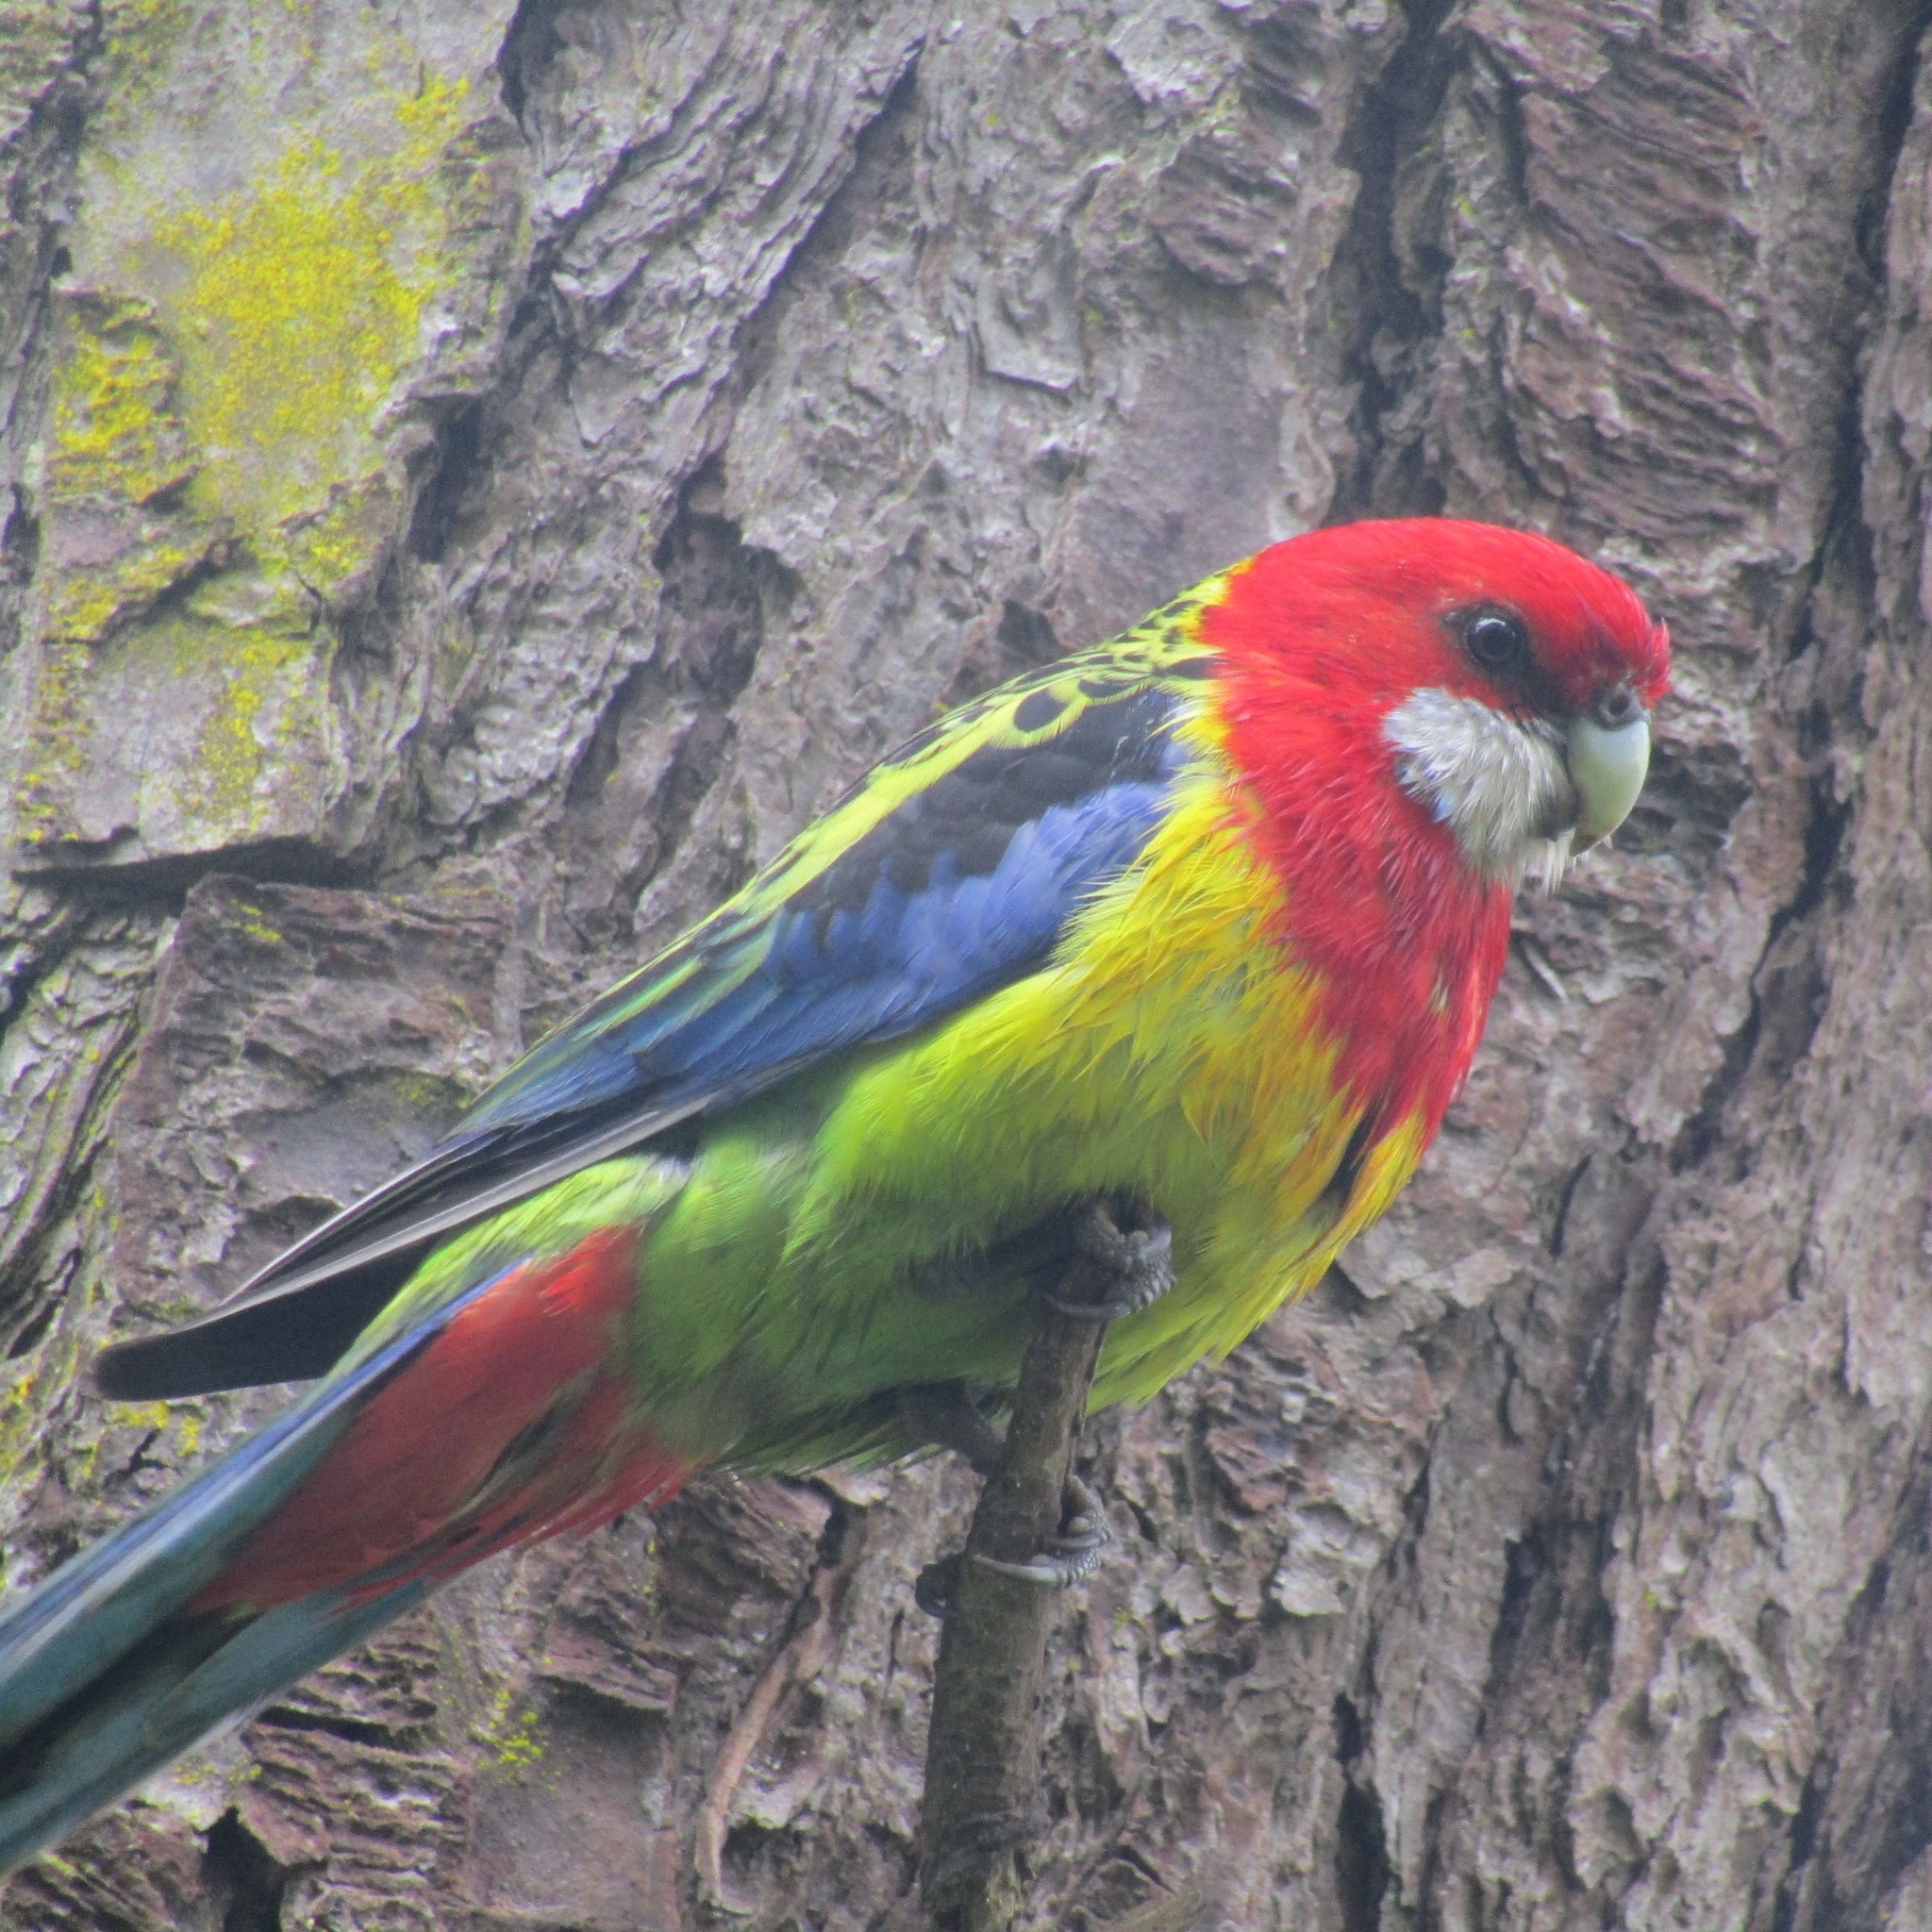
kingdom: Animalia
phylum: Chordata
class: Aves
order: Psittaciformes
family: Psittacidae
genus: Platycercus
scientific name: Platycercus eximius
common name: Eastern rosella
